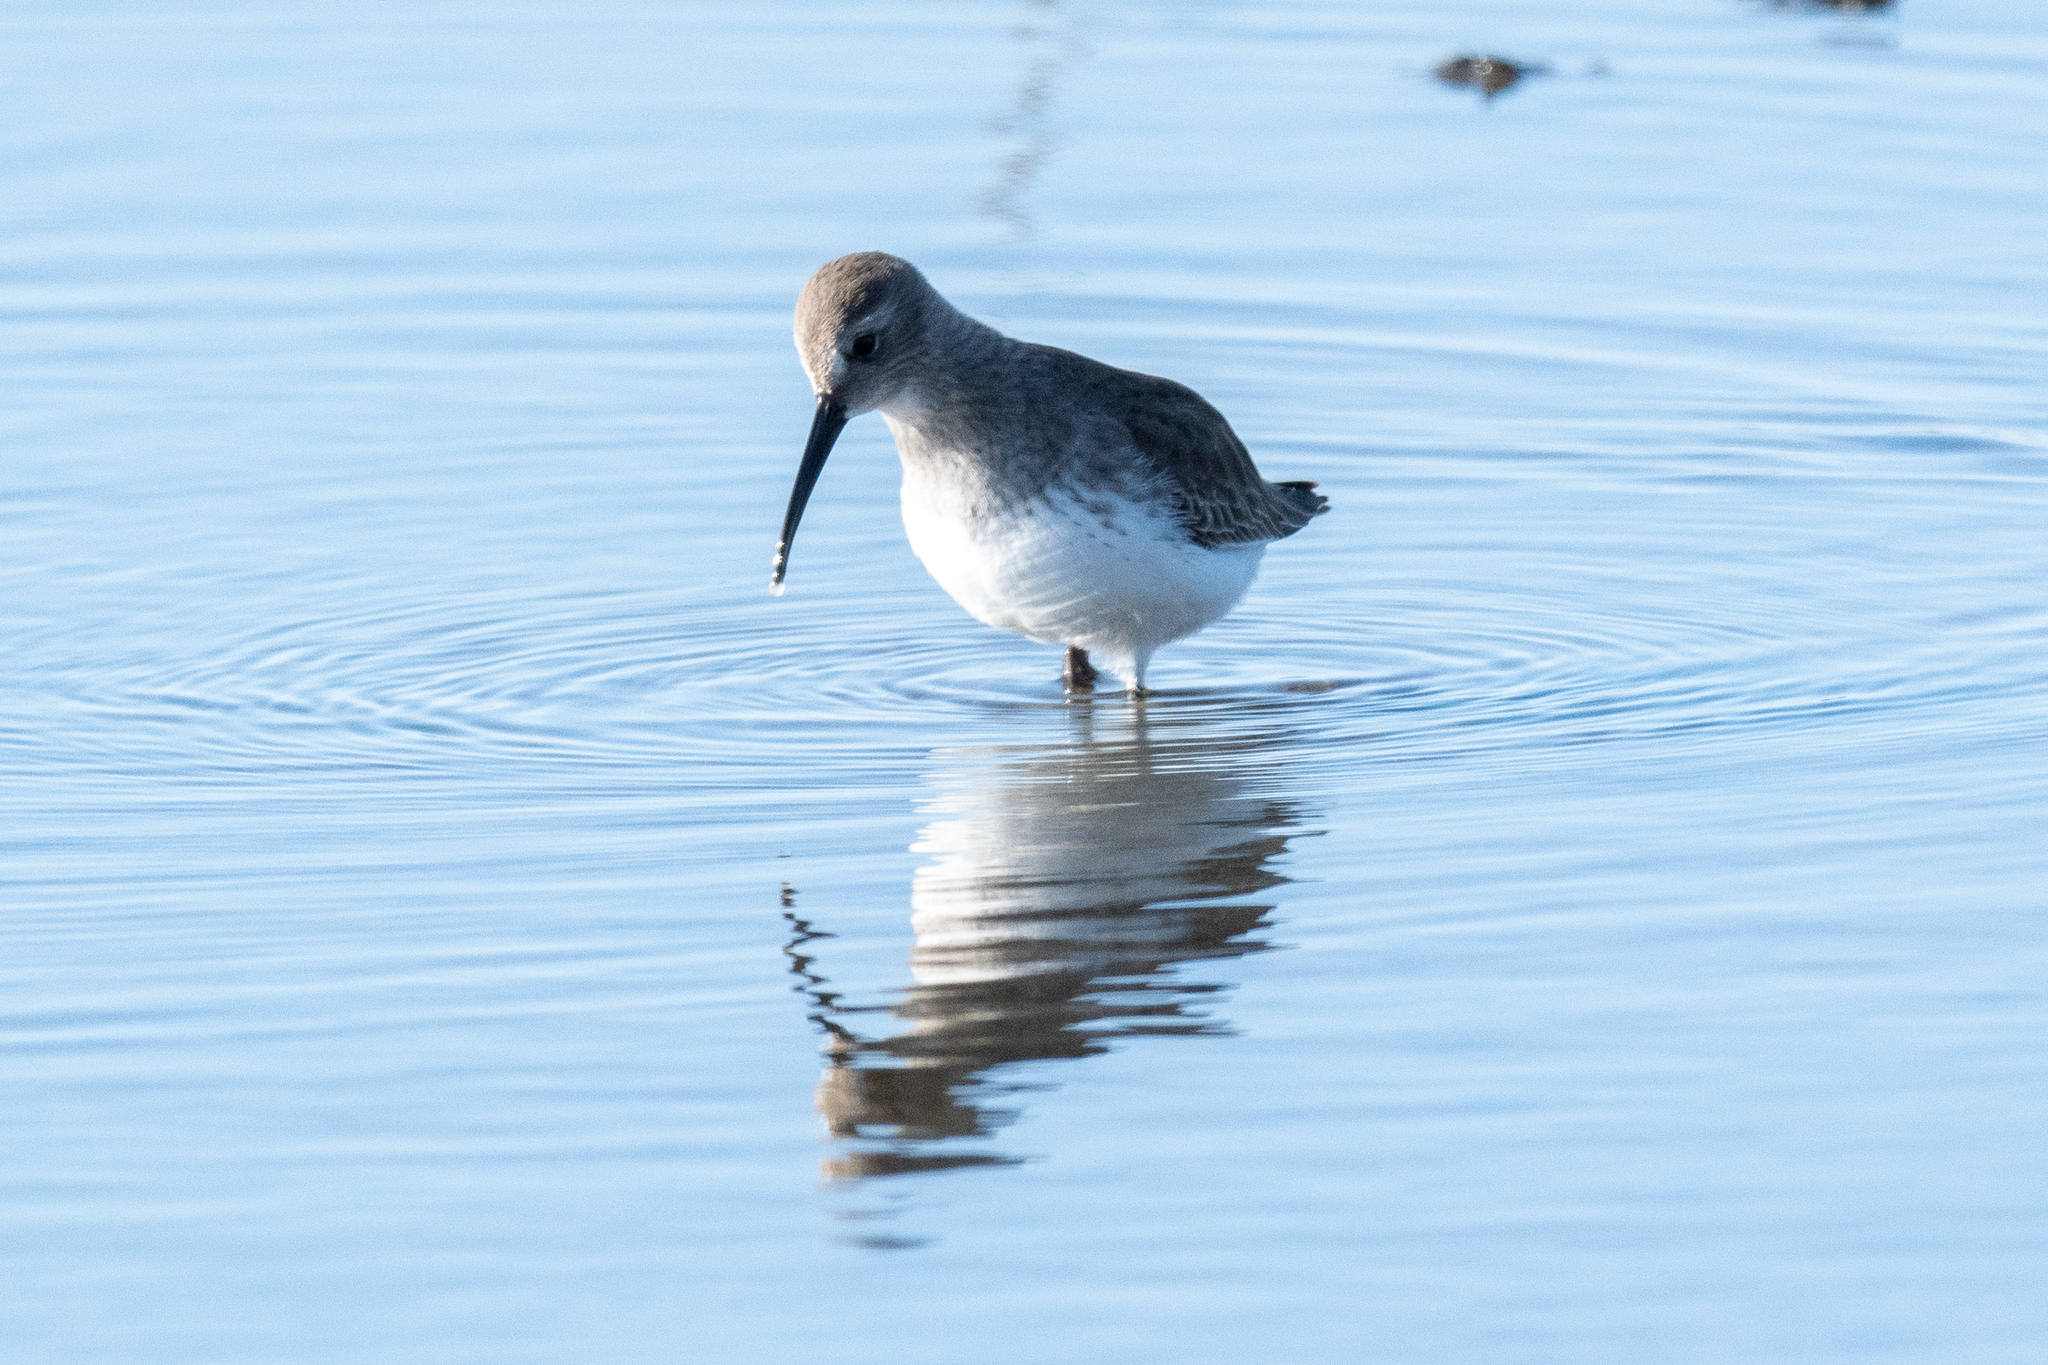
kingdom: Animalia
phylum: Chordata
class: Aves
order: Charadriiformes
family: Scolopacidae
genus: Calidris
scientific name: Calidris alpina
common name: Dunlin
